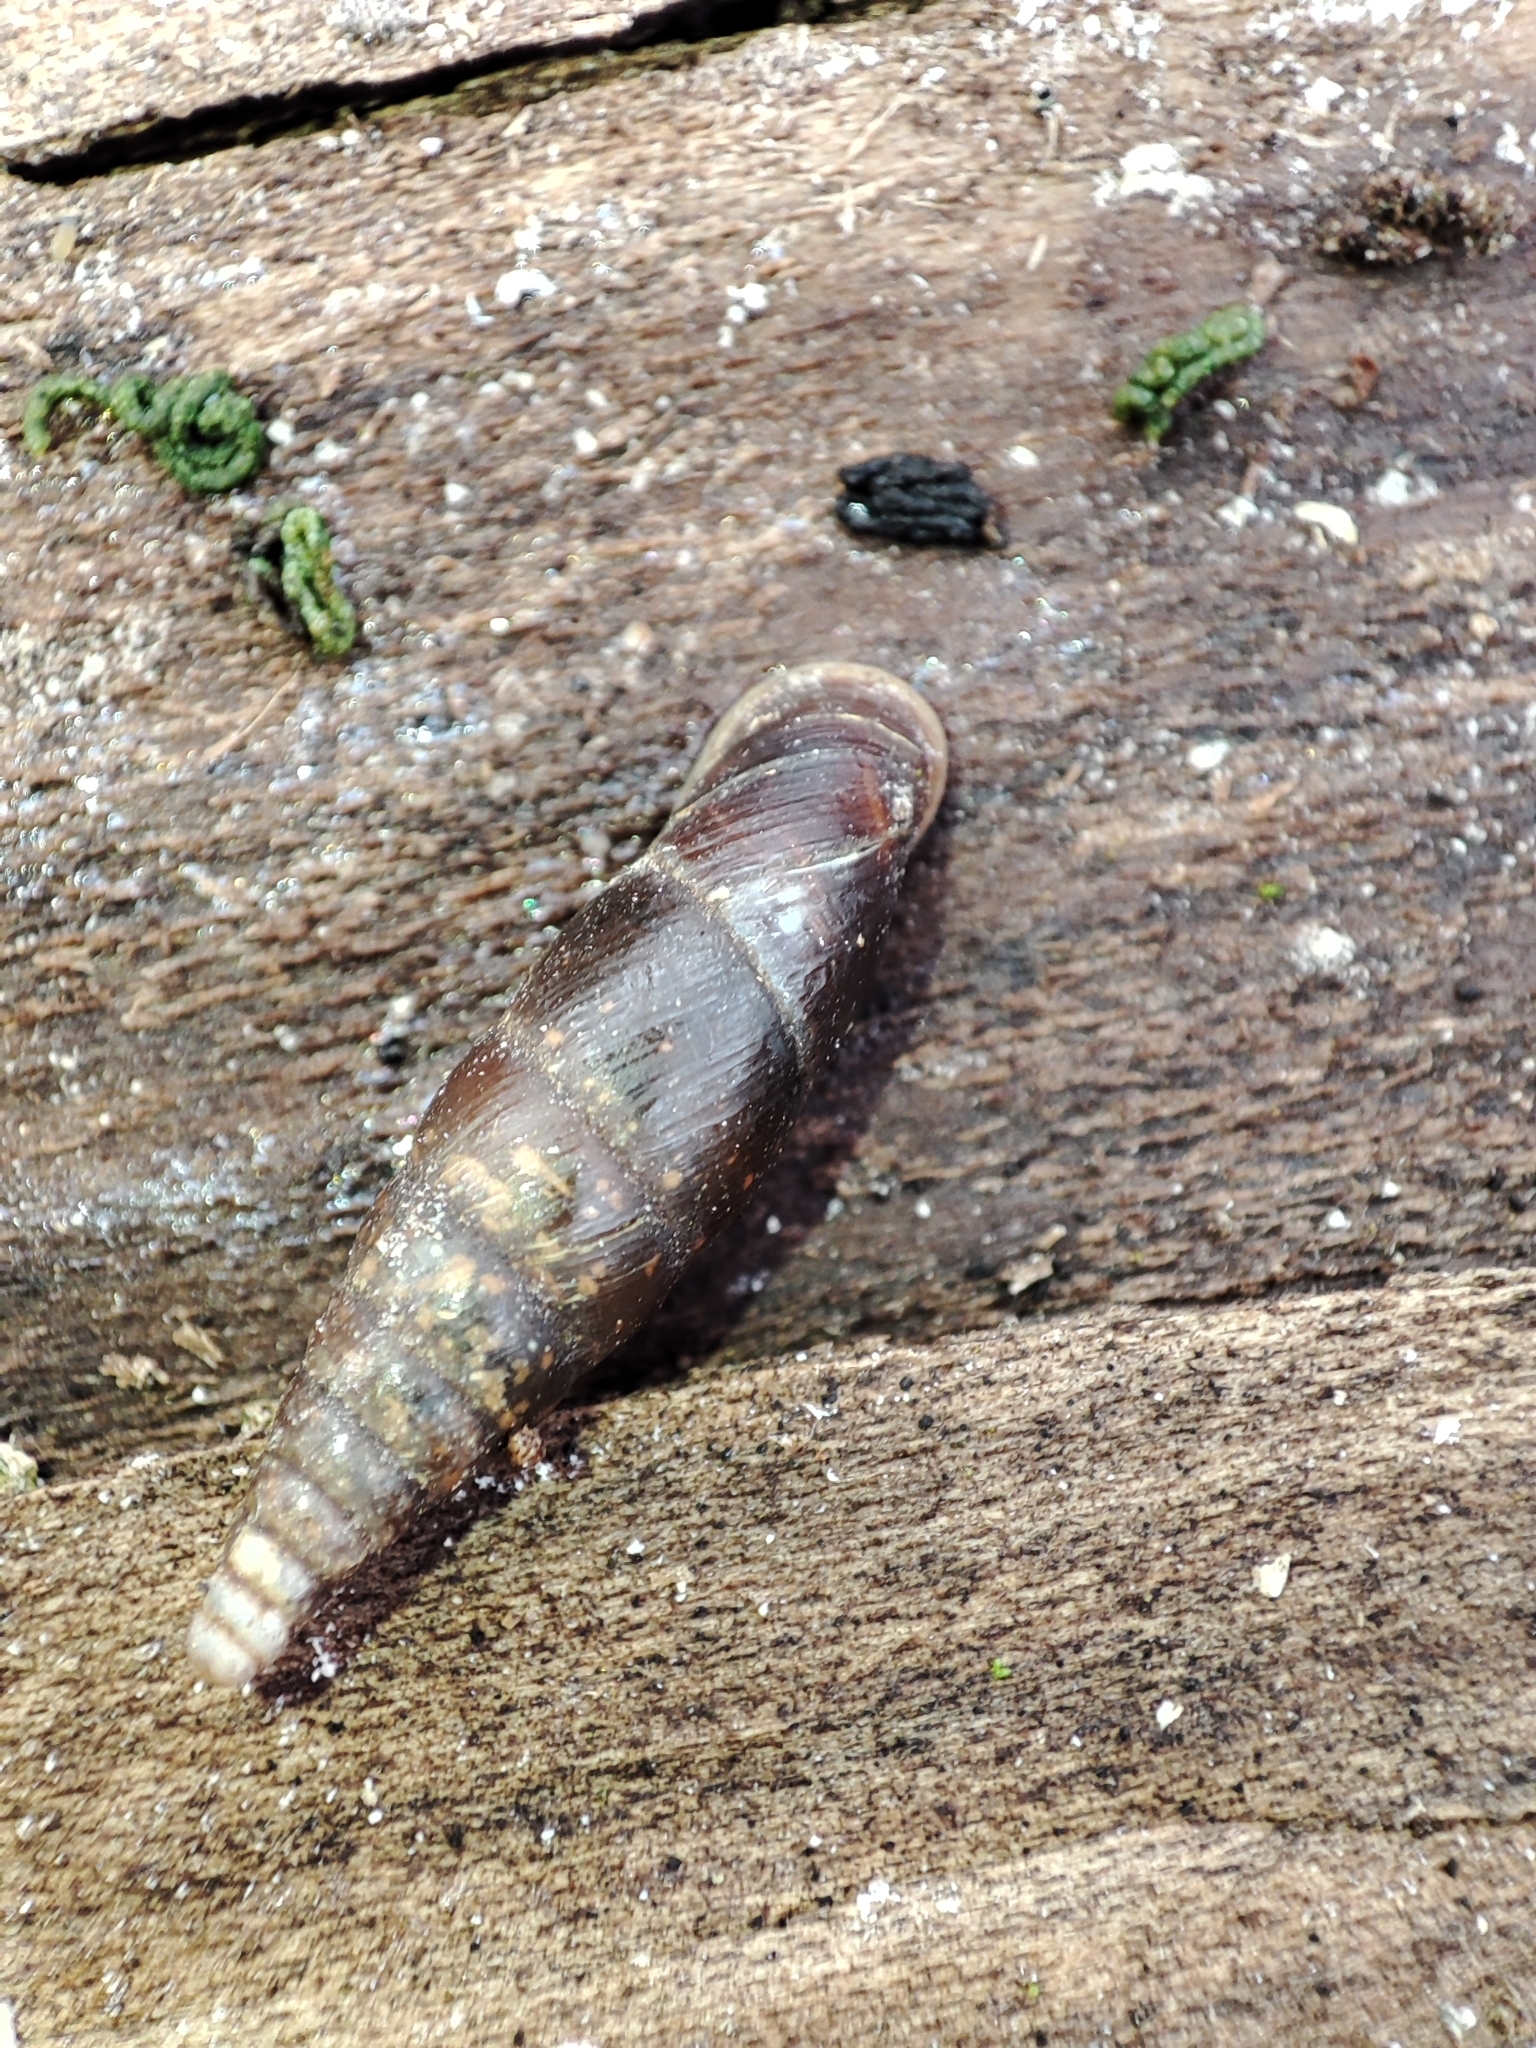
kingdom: Animalia
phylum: Mollusca
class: Gastropoda
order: Stylommatophora
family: Clausiliidae
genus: Cochlodina
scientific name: Cochlodina laminata
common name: Plaited door snail
